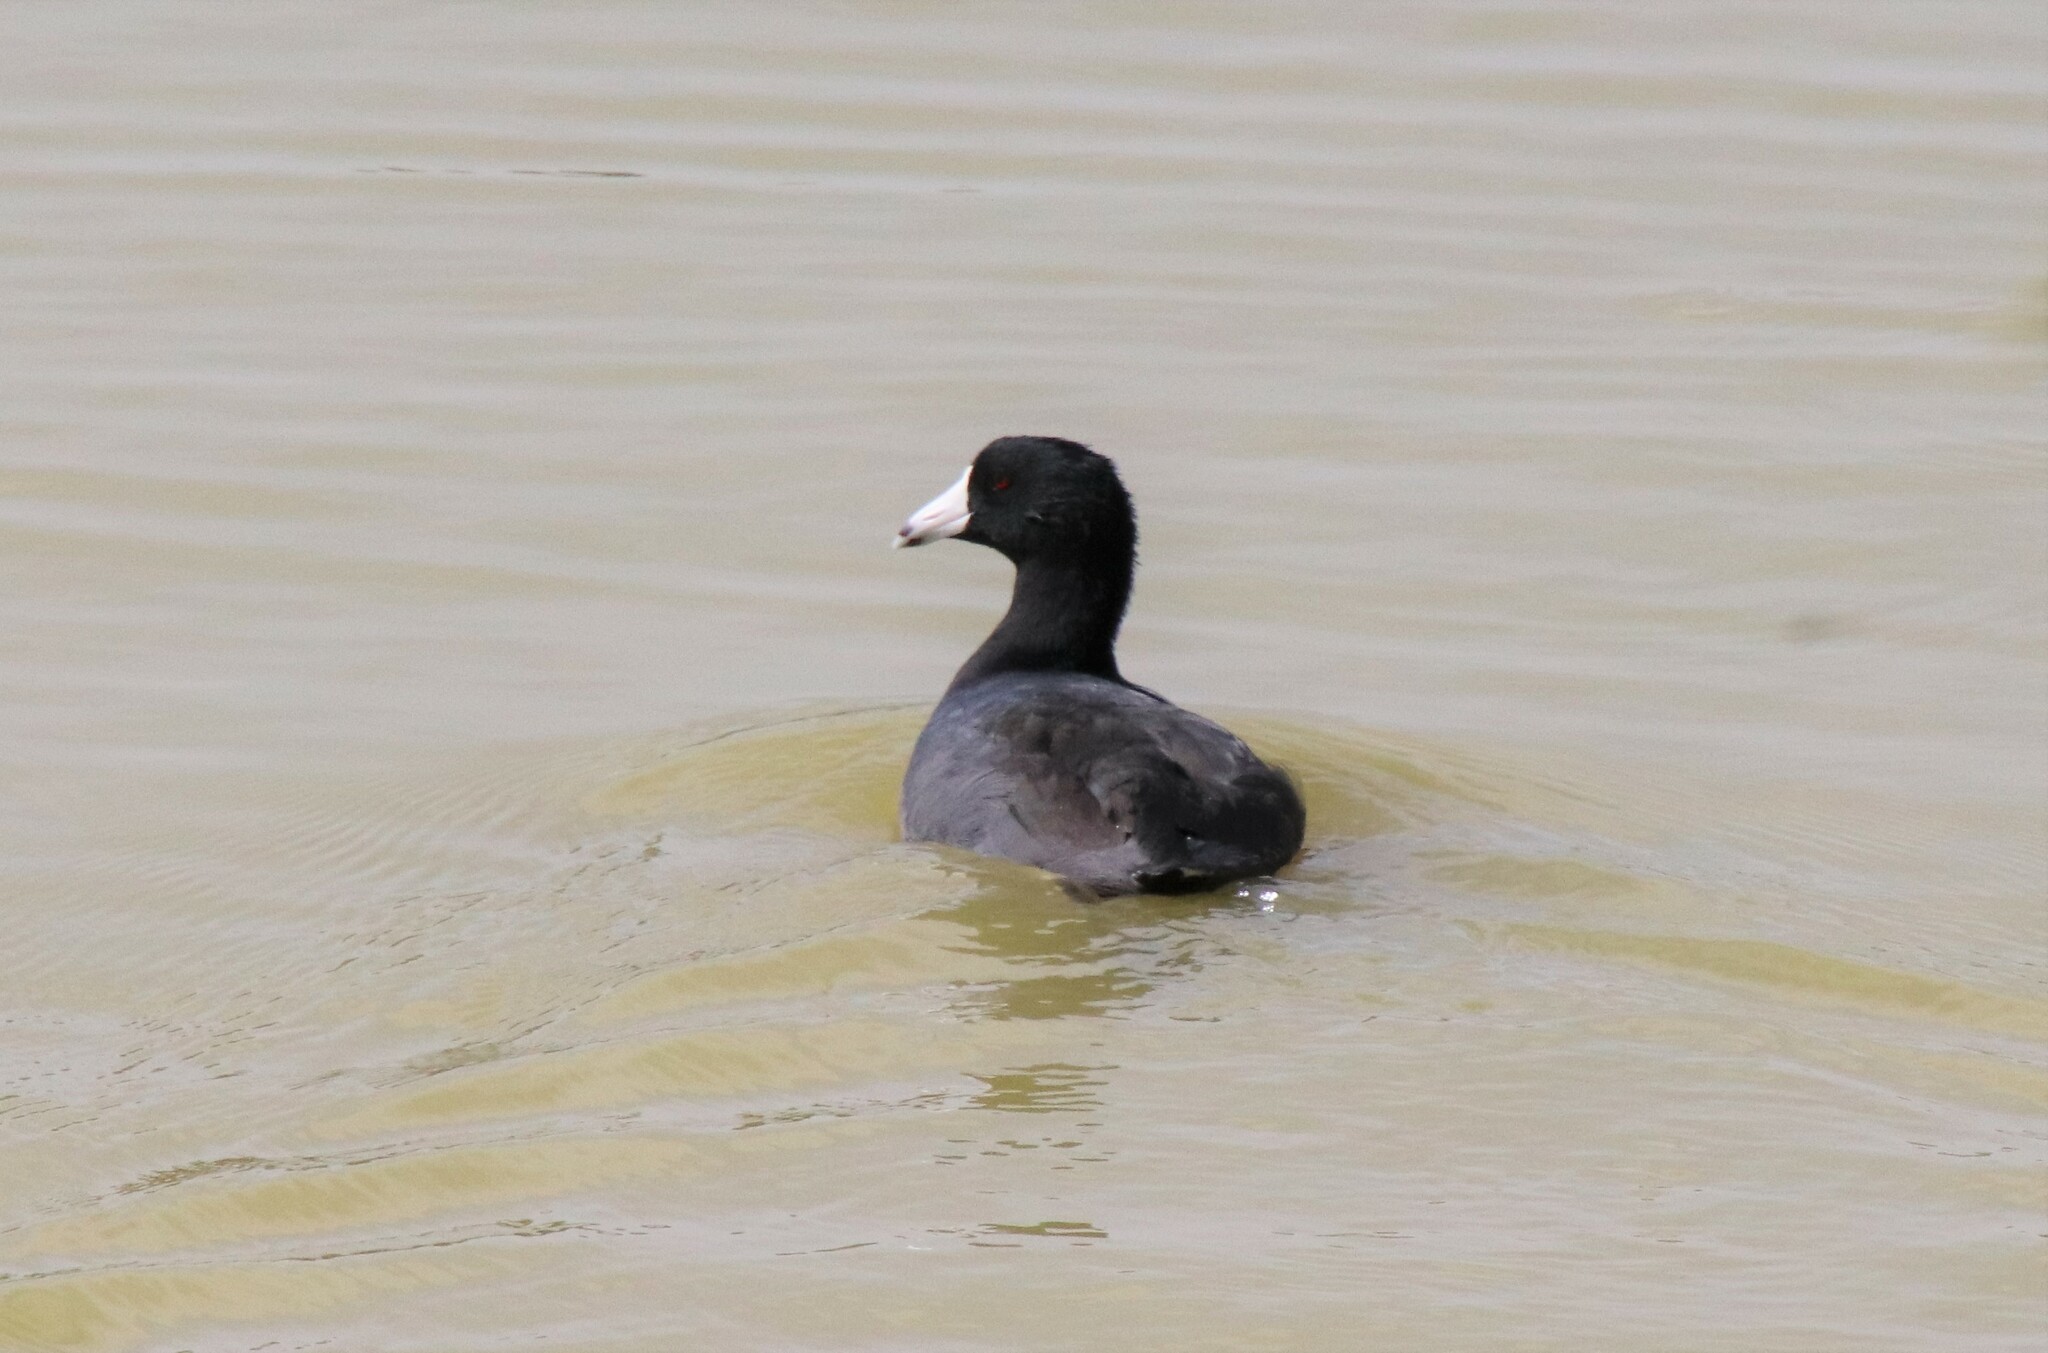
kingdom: Animalia
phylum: Chordata
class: Aves
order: Gruiformes
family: Rallidae
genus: Fulica
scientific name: Fulica americana
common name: American coot
